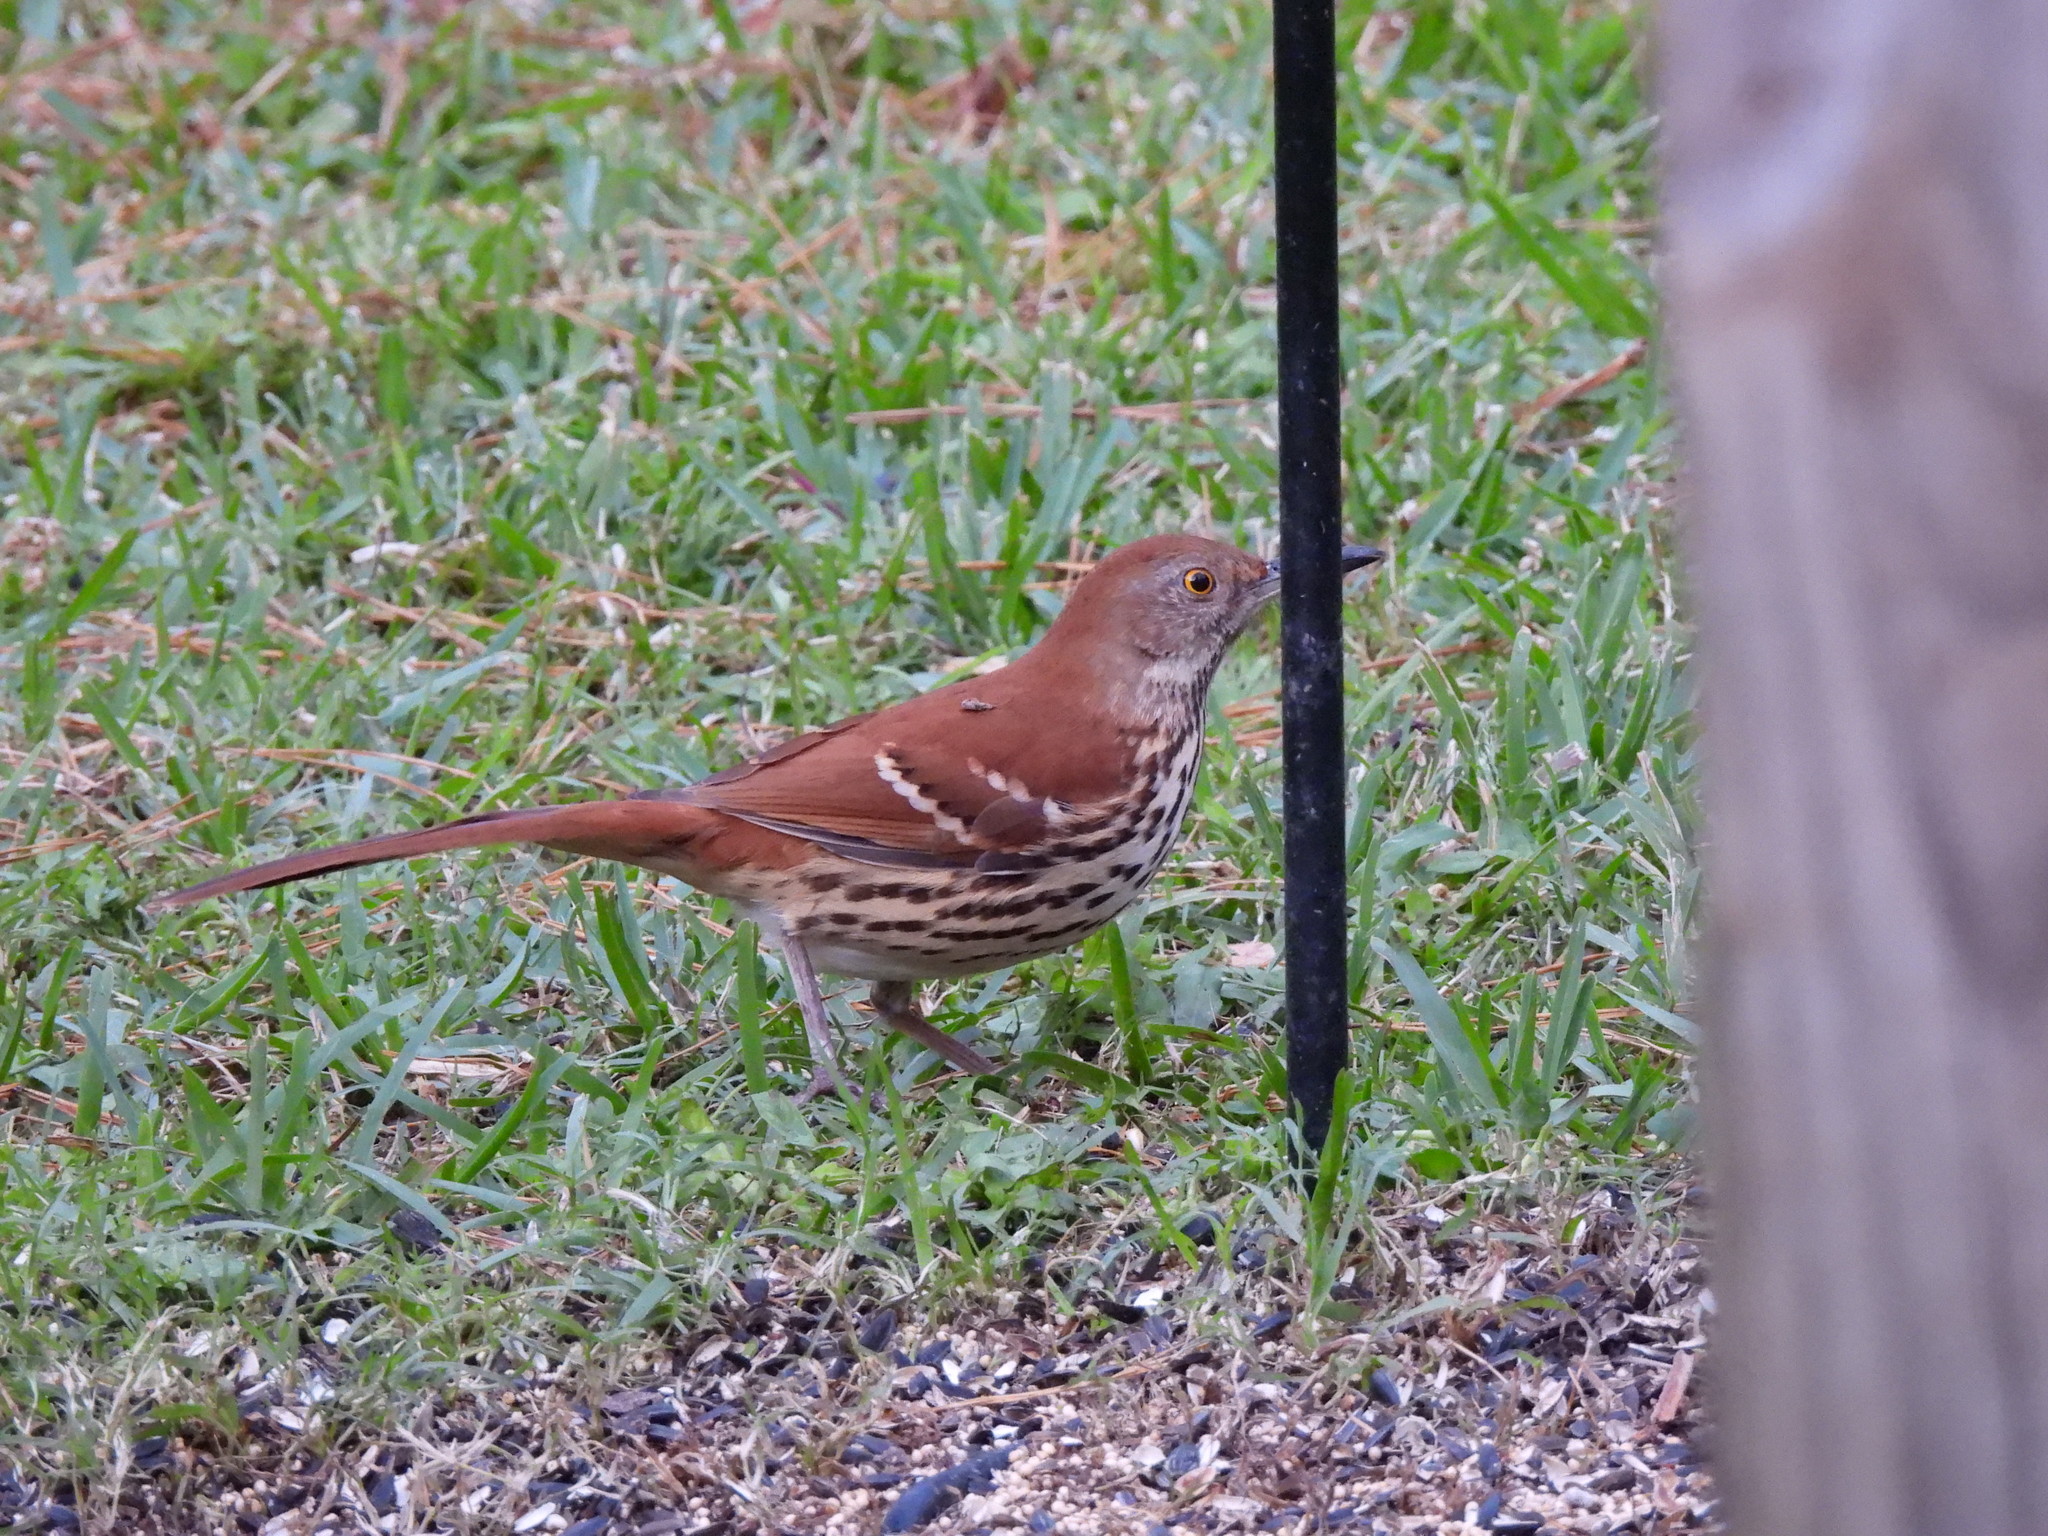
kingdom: Animalia
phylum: Chordata
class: Aves
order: Passeriformes
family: Mimidae
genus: Toxostoma
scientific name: Toxostoma rufum
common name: Brown thrasher
